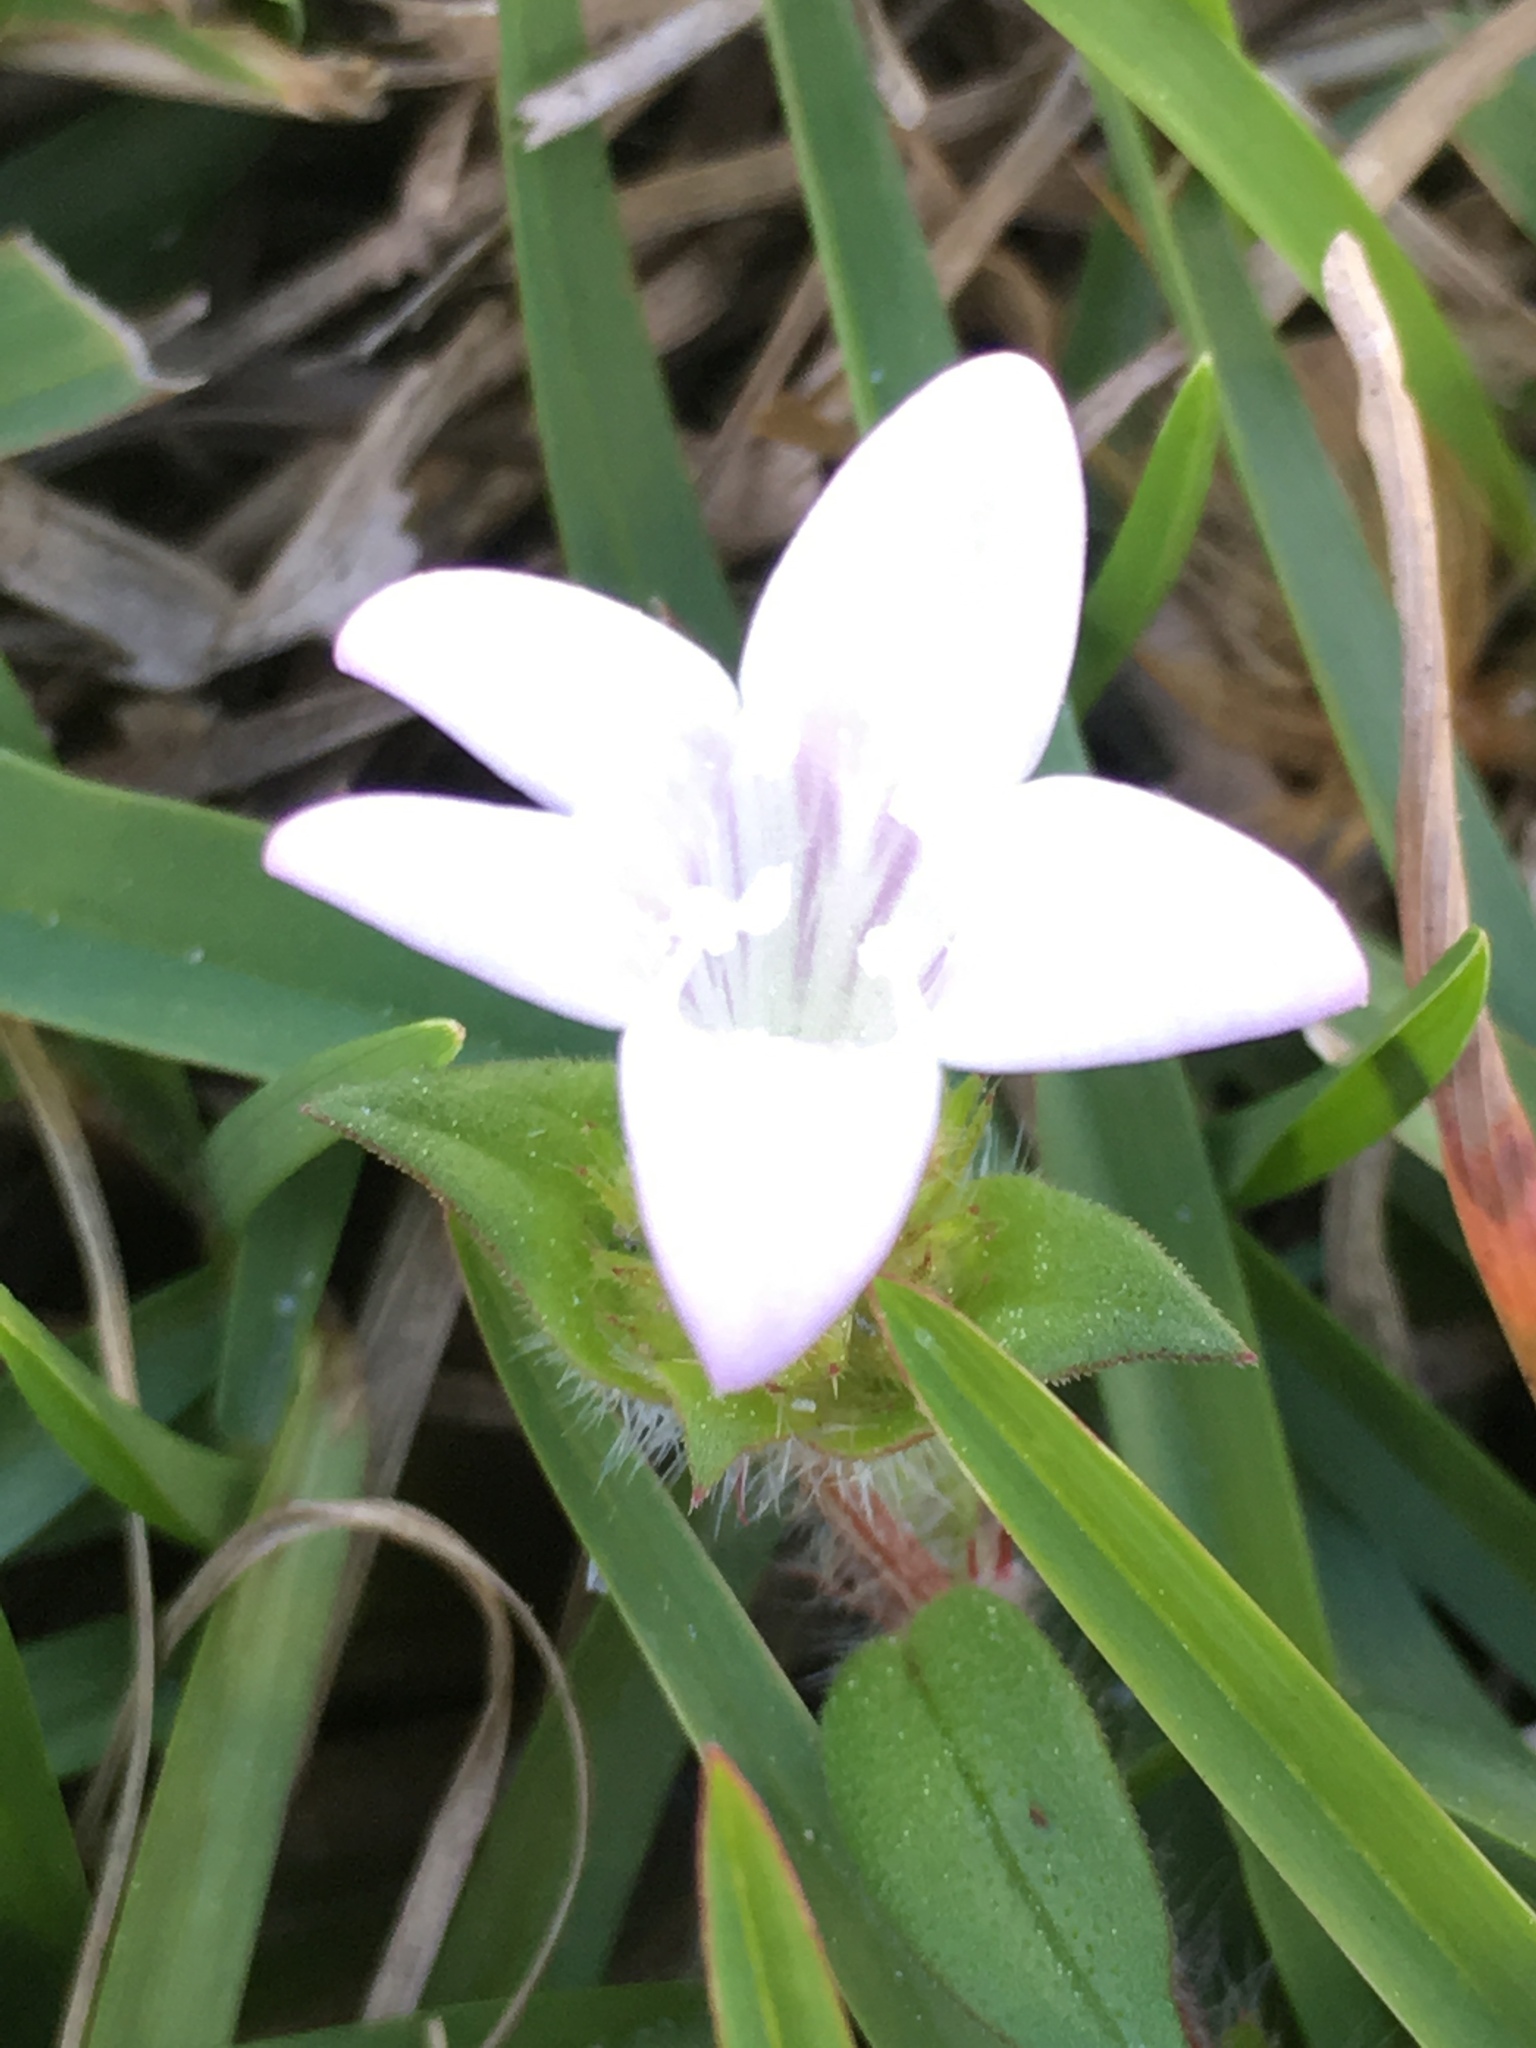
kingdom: Plantae
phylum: Tracheophyta
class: Magnoliopsida
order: Gentianales
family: Rubiaceae
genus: Richardia
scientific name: Richardia grandiflora
